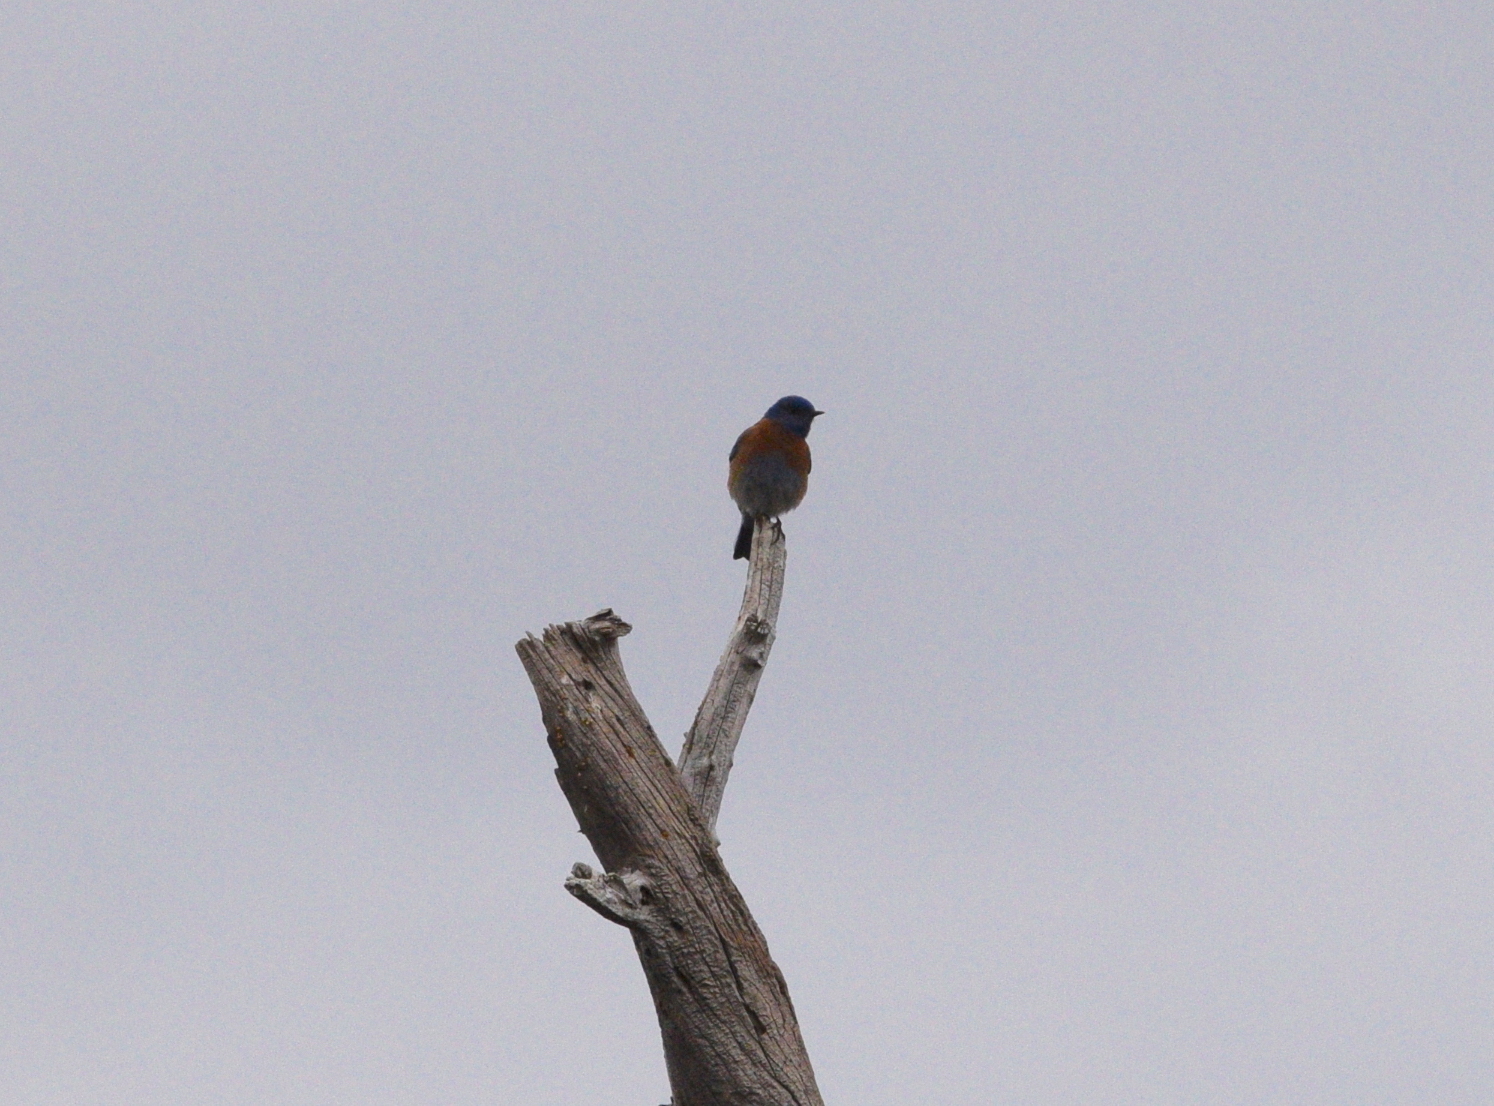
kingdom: Animalia
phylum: Chordata
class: Aves
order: Passeriformes
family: Turdidae
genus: Sialia
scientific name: Sialia mexicana
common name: Western bluebird
